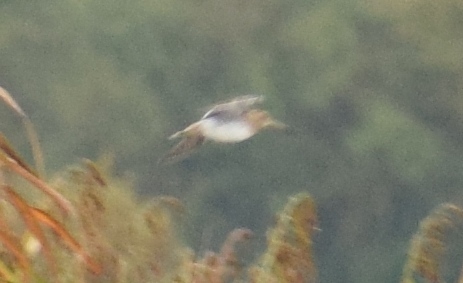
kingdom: Animalia
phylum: Chordata
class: Aves
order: Charadriiformes
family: Scolopacidae
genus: Gallinago
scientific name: Gallinago gallinago
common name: Common snipe
